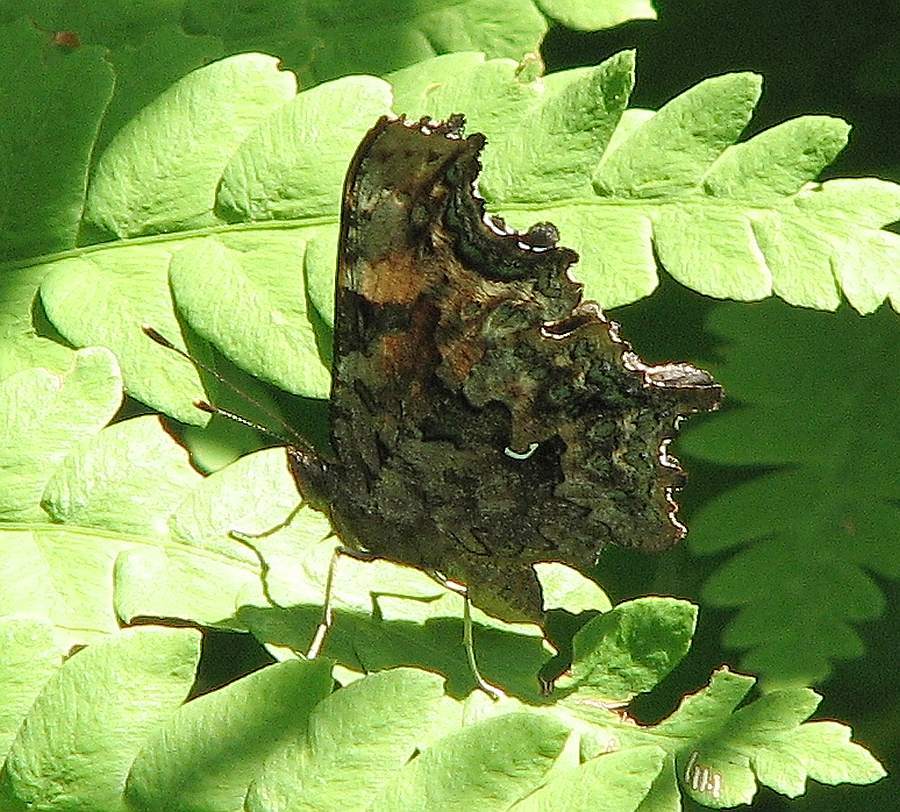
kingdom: Animalia
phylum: Arthropoda
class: Insecta
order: Lepidoptera
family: Nymphalidae
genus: Polygonia
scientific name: Polygonia faunus
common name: Green comma
